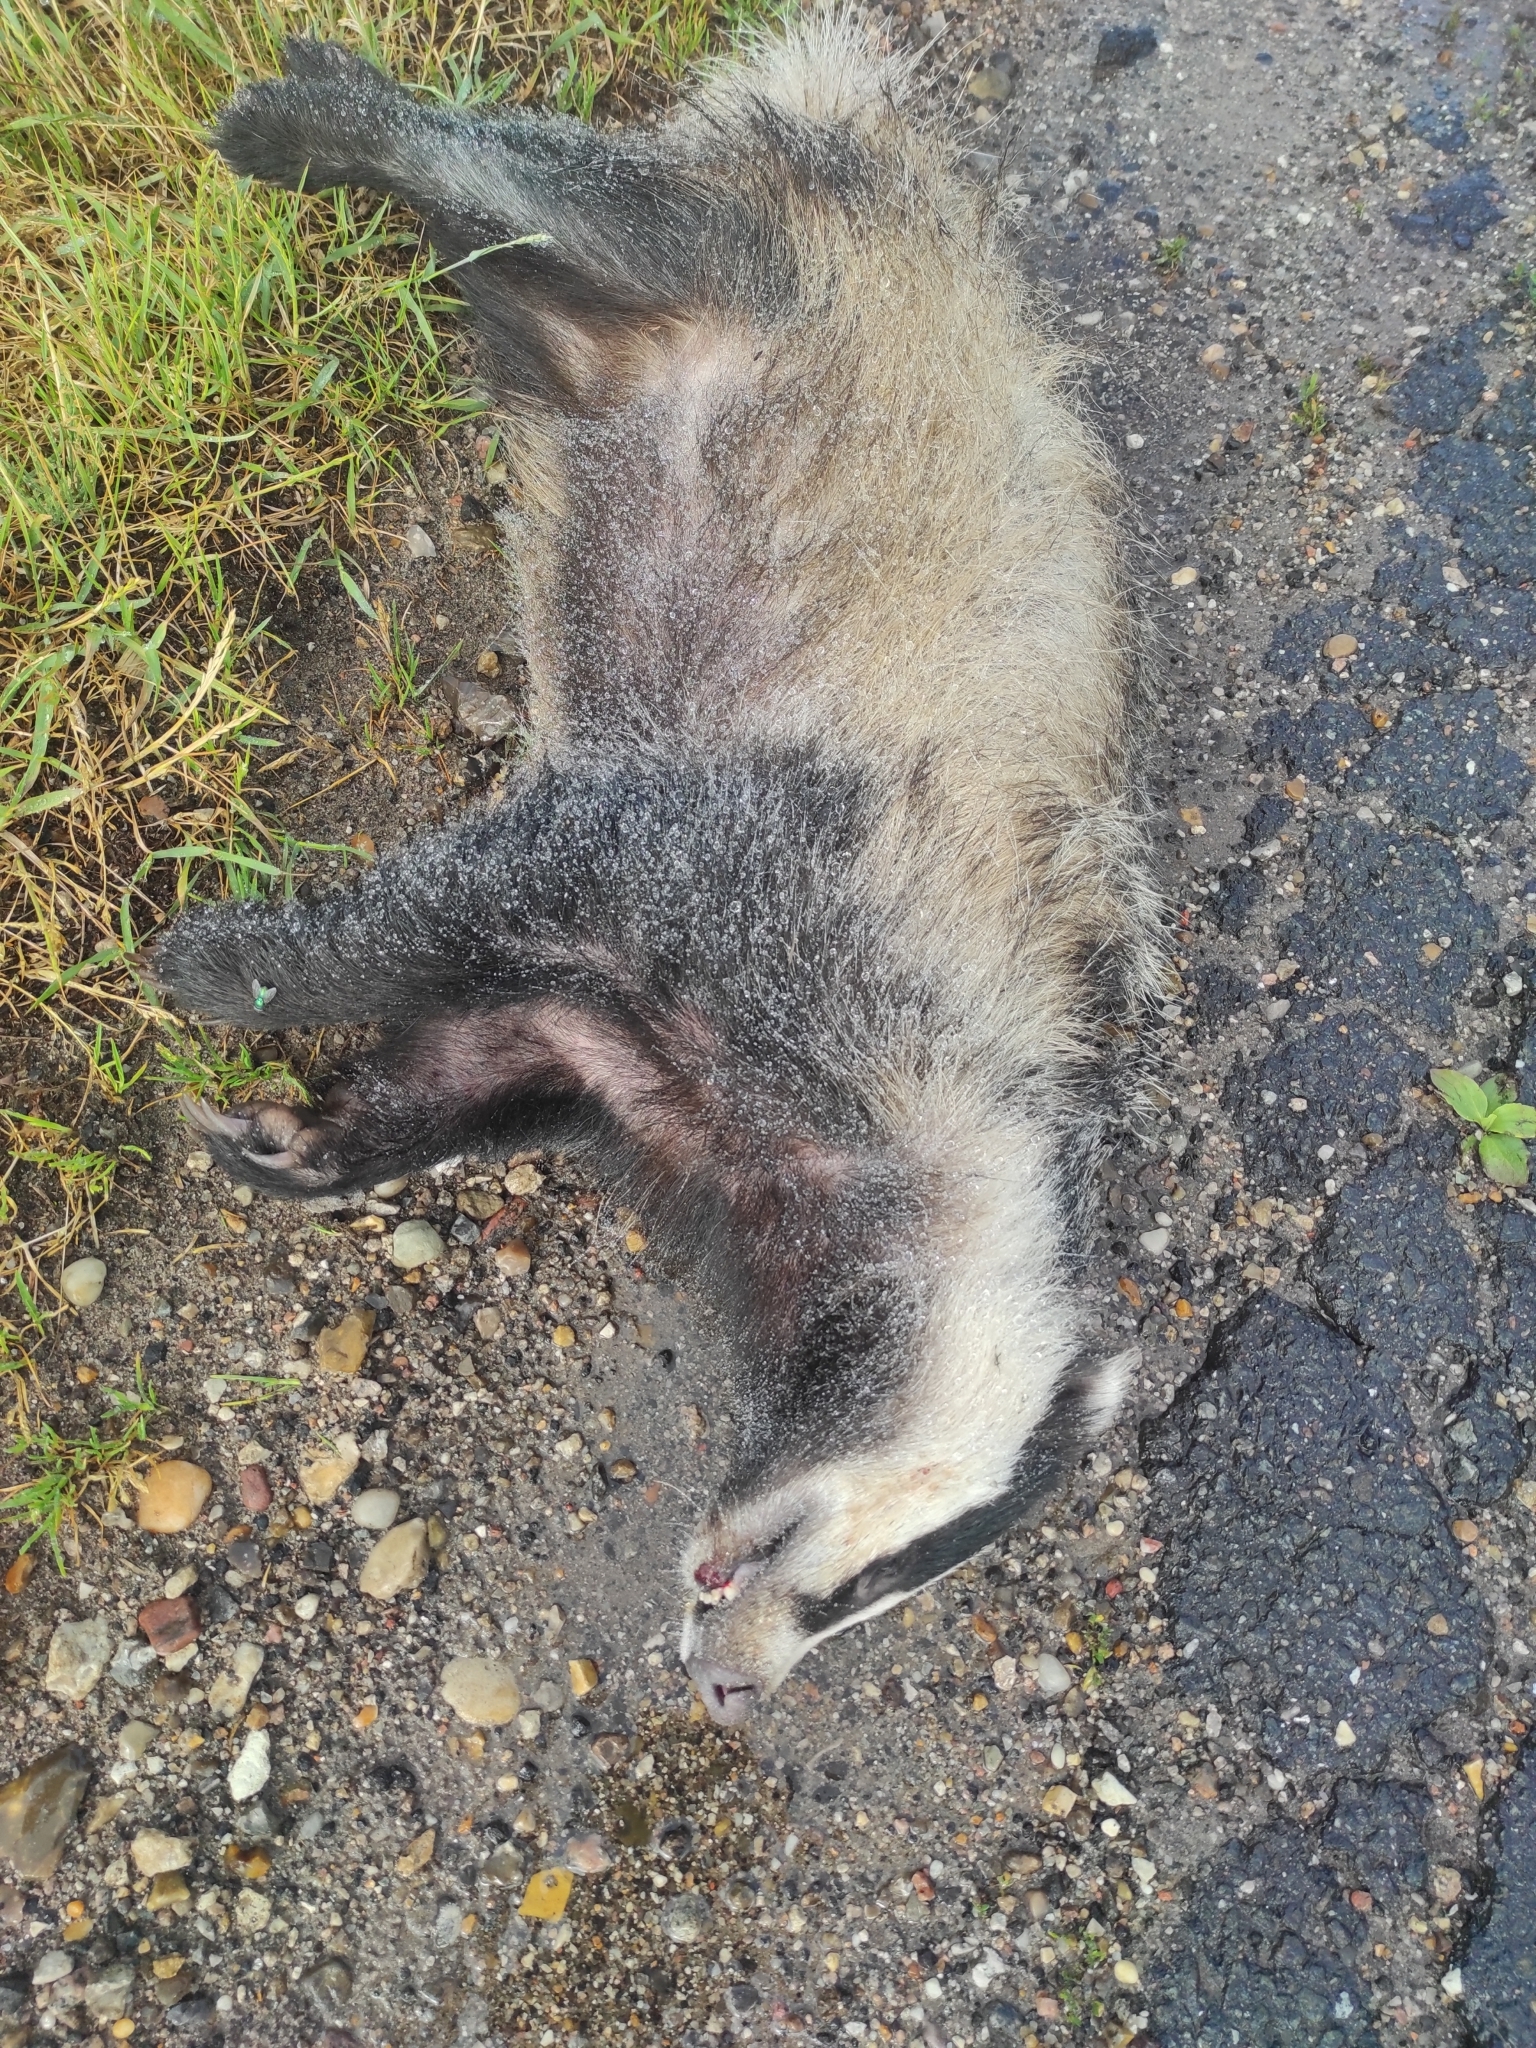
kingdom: Animalia
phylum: Chordata
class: Mammalia
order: Carnivora
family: Mustelidae
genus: Meles
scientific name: Meles meles
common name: Eurasian badger
